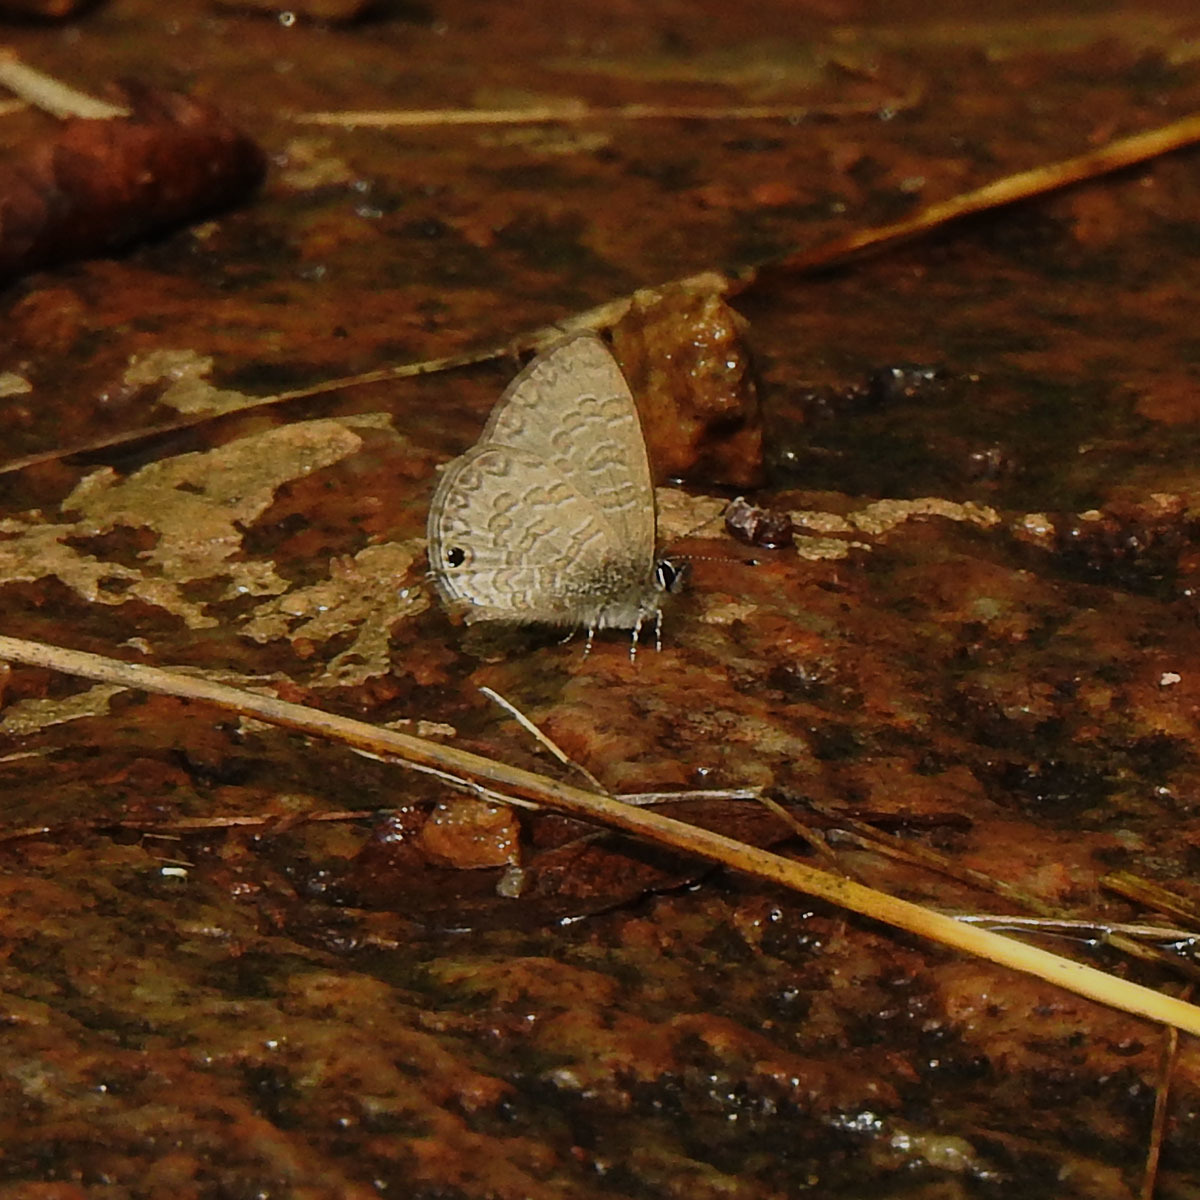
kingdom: Animalia
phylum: Arthropoda
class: Insecta
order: Lepidoptera
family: Lycaenidae
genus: Prosotas
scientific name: Prosotas nora
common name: Common line blue
